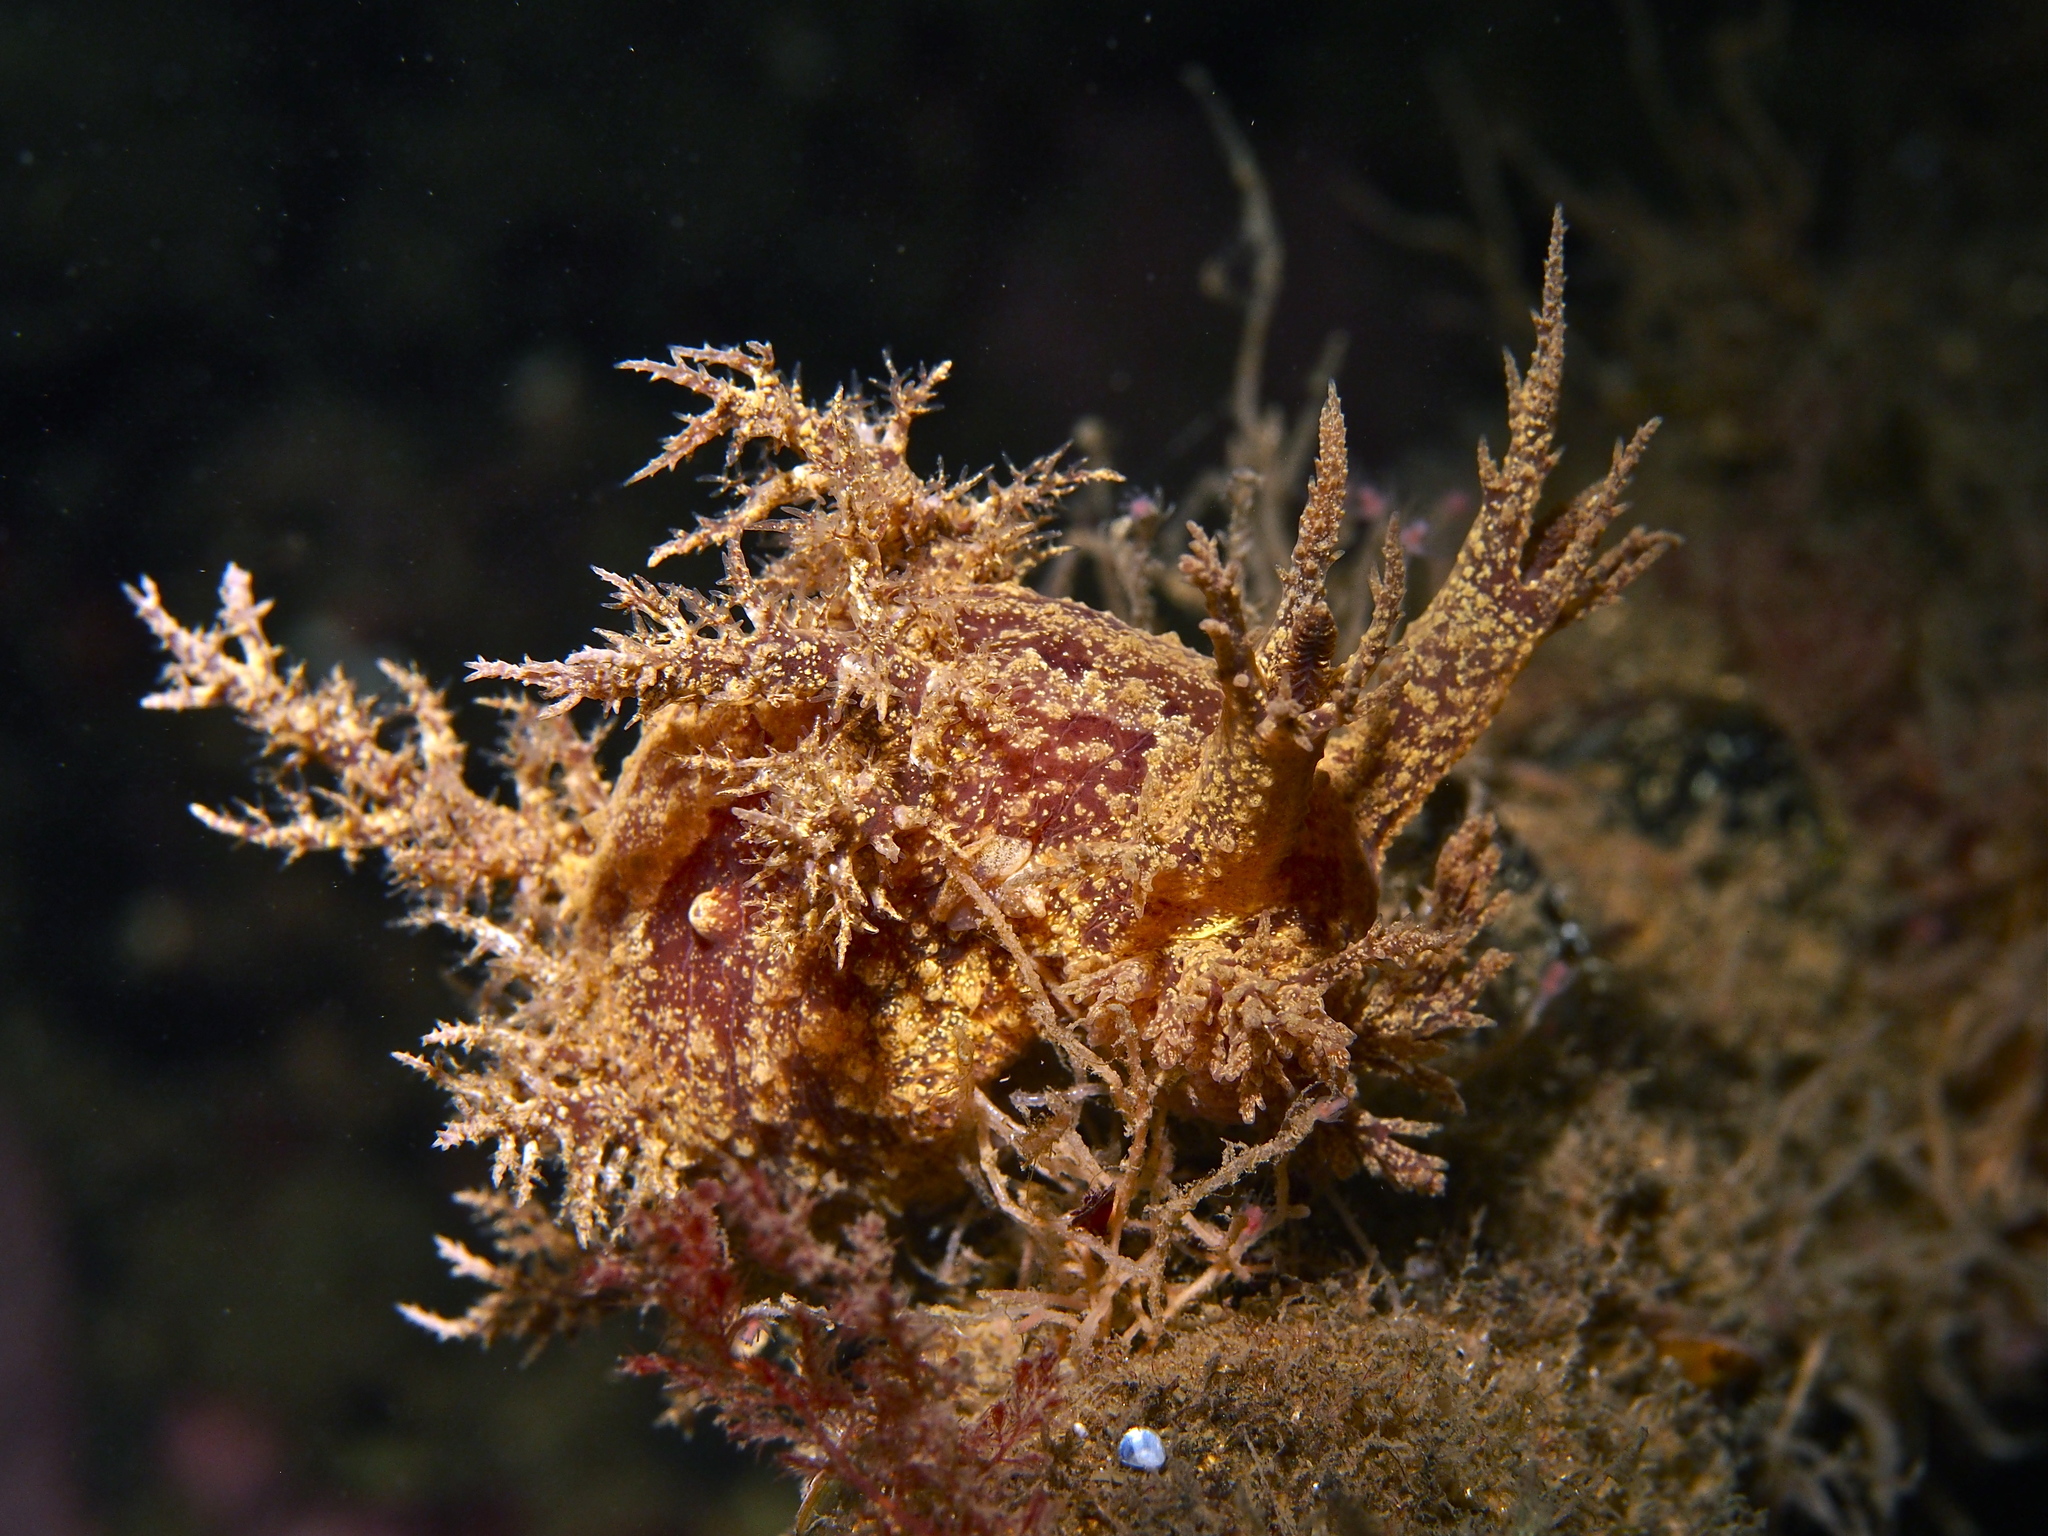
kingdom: Animalia
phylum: Mollusca
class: Gastropoda
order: Nudibranchia
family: Dendronotidae
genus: Dendronotus
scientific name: Dendronotus europaeus
